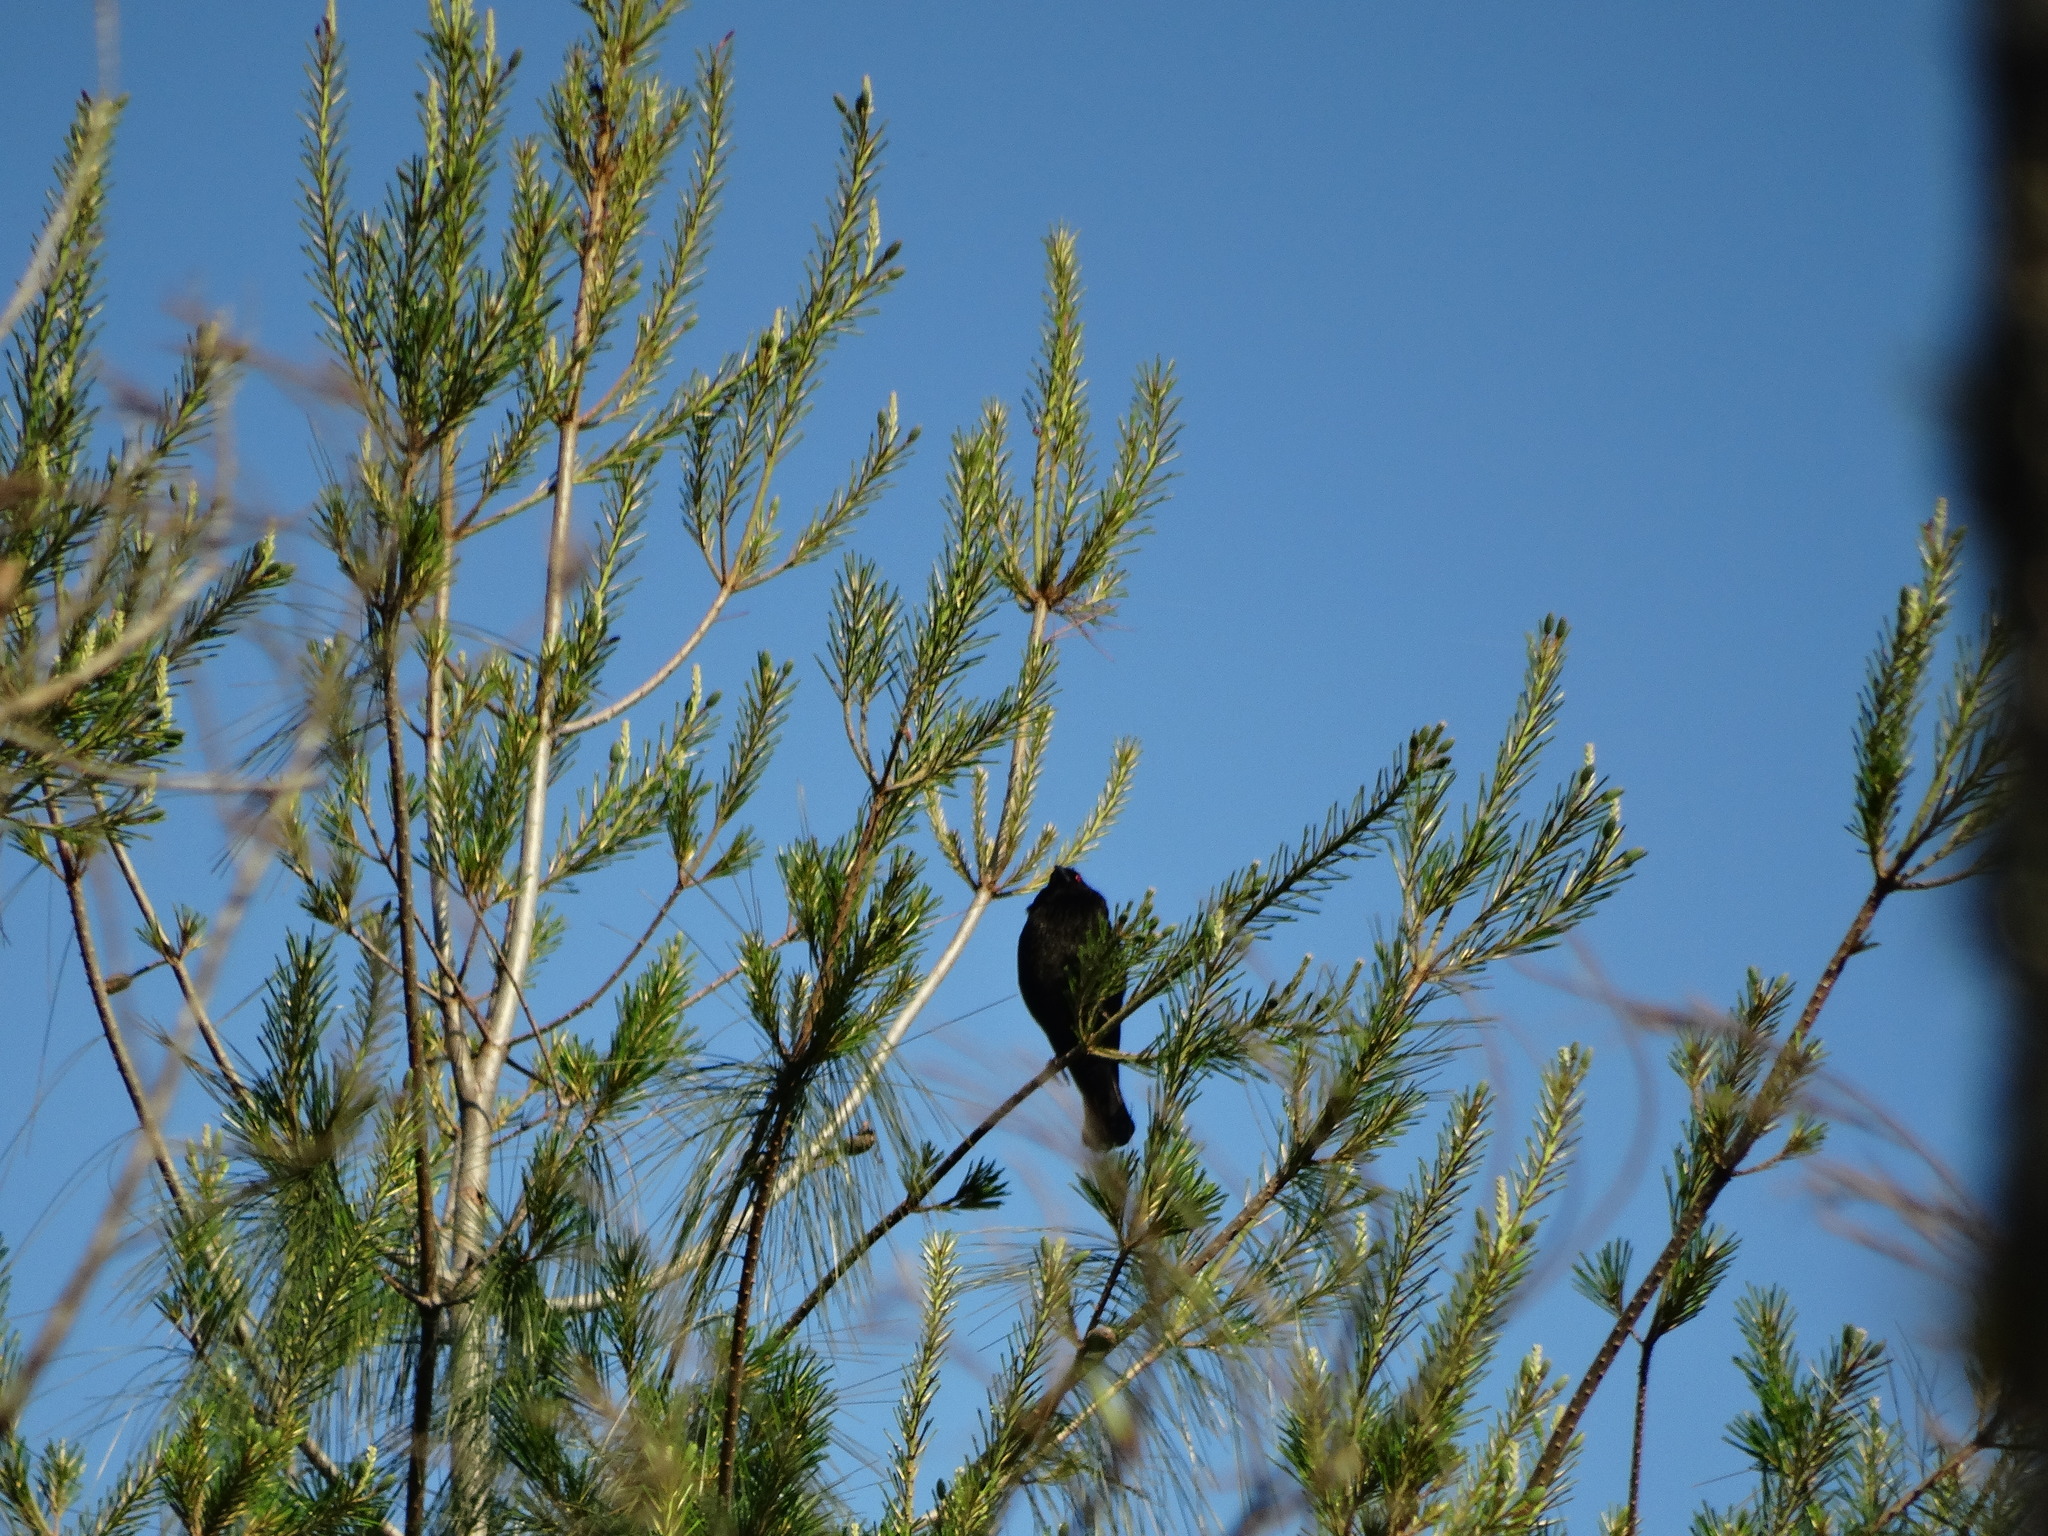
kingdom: Animalia
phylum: Chordata
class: Aves
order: Passeriformes
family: Icteridae
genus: Molothrus
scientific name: Molothrus aeneus
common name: Bronzed cowbird
